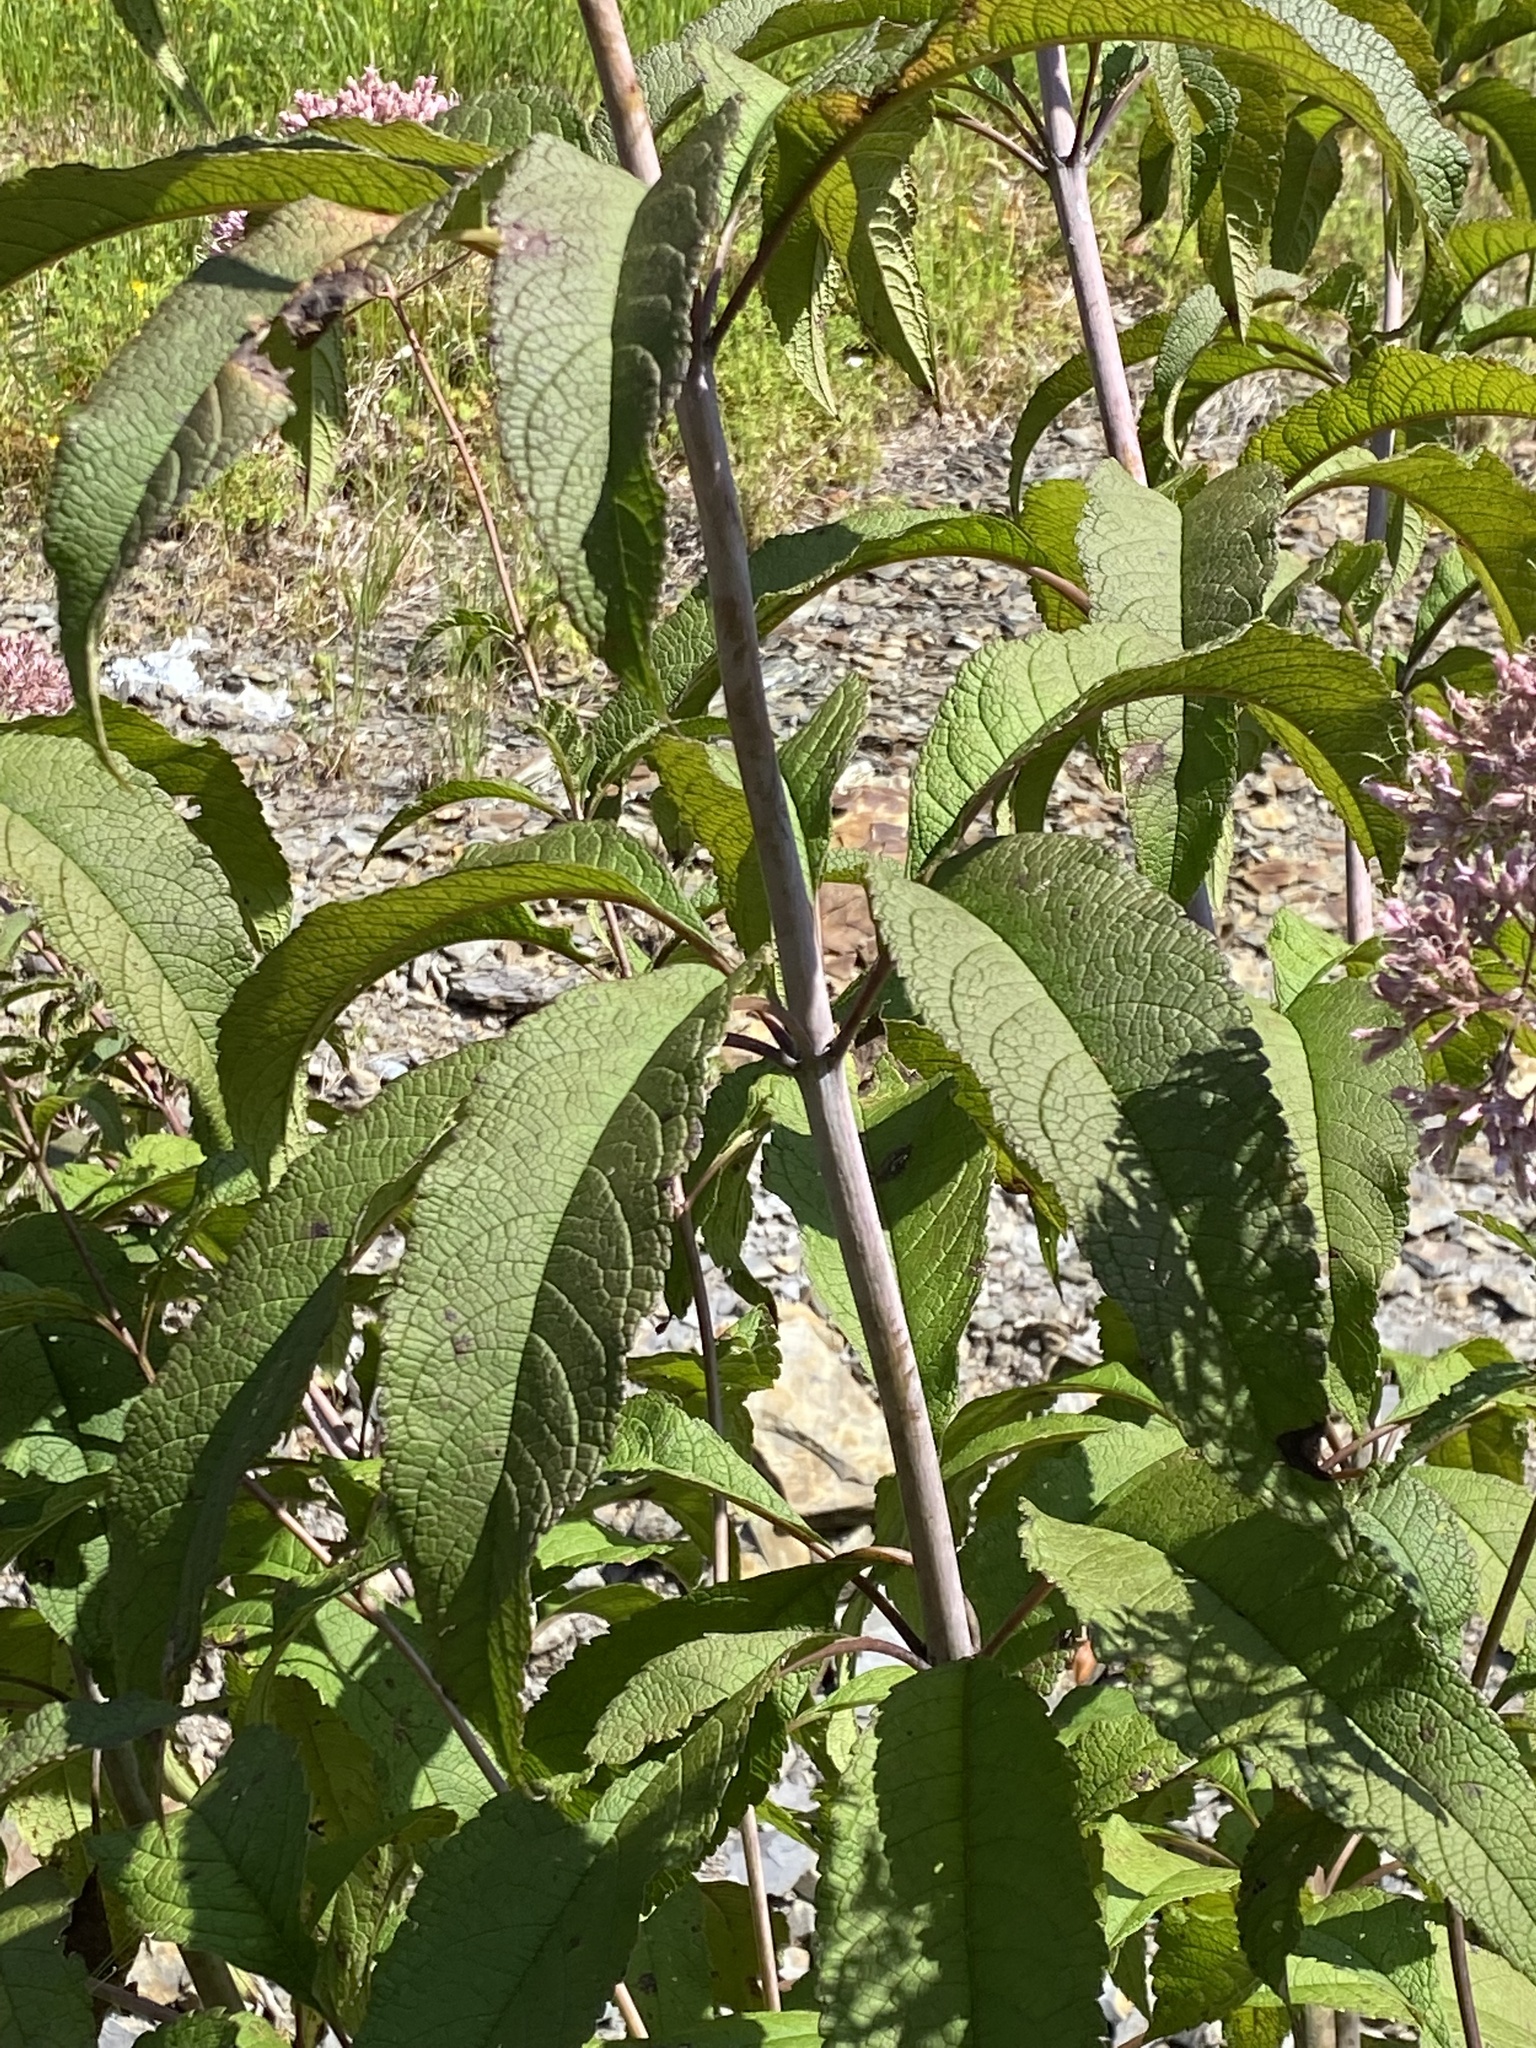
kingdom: Plantae
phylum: Tracheophyta
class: Magnoliopsida
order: Asterales
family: Asteraceae
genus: Eutrochium
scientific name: Eutrochium fistulosum
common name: Trumpetweed
